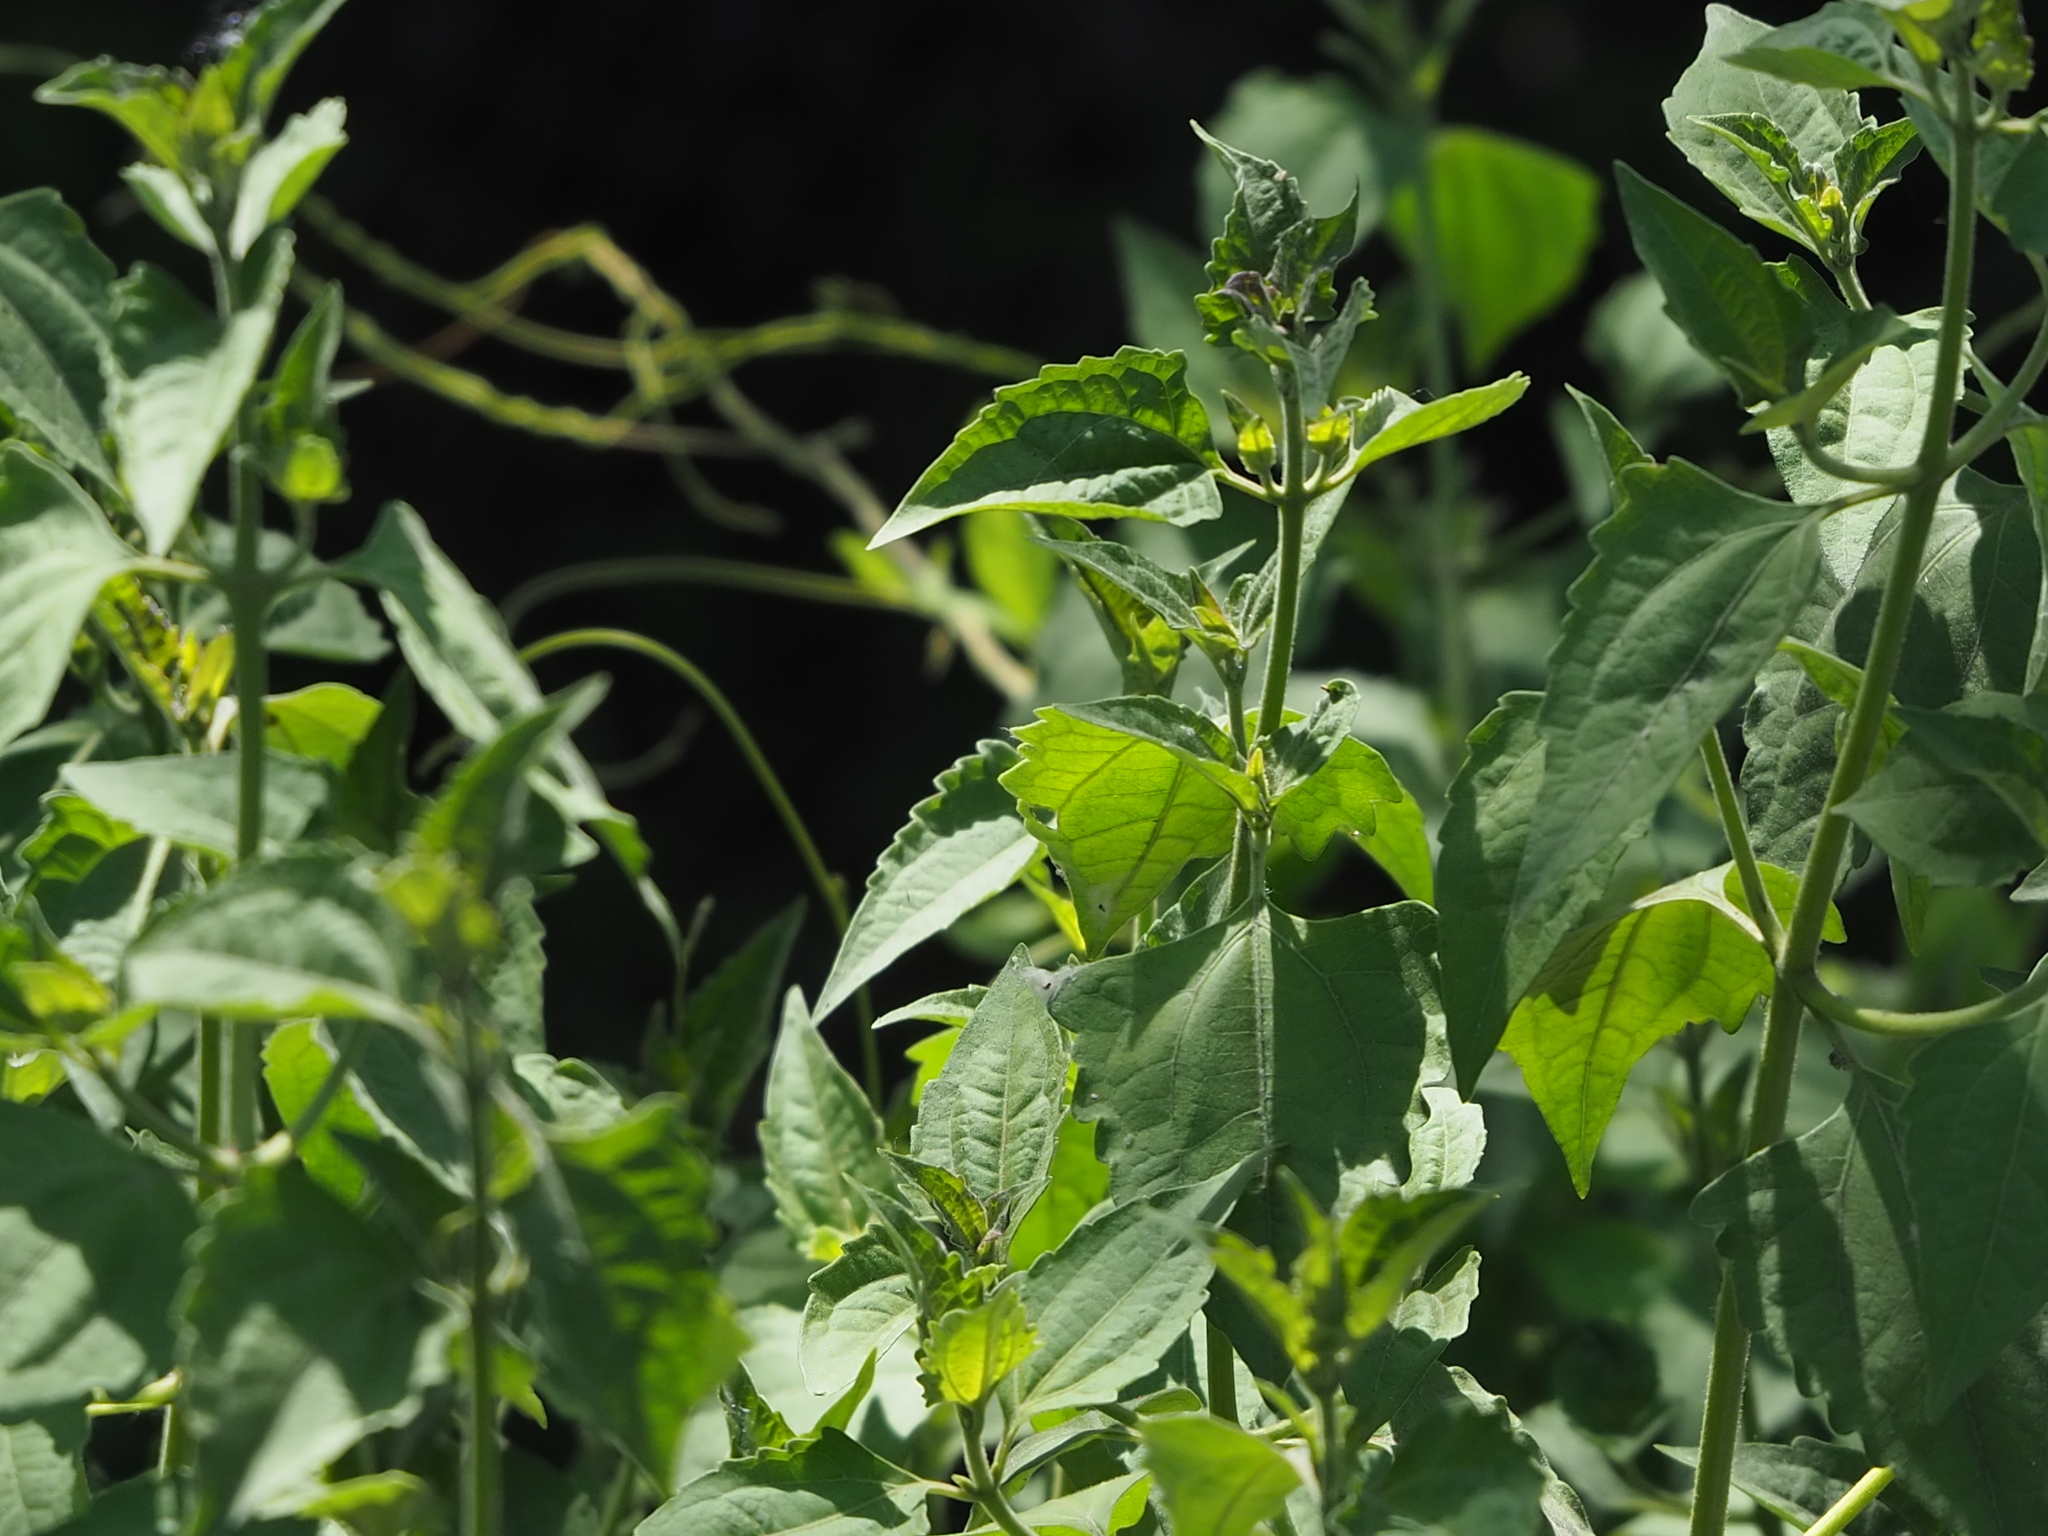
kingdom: Plantae
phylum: Tracheophyta
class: Magnoliopsida
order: Asterales
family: Asteraceae
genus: Chromolaena
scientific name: Chromolaena odorata
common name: Siamweed
